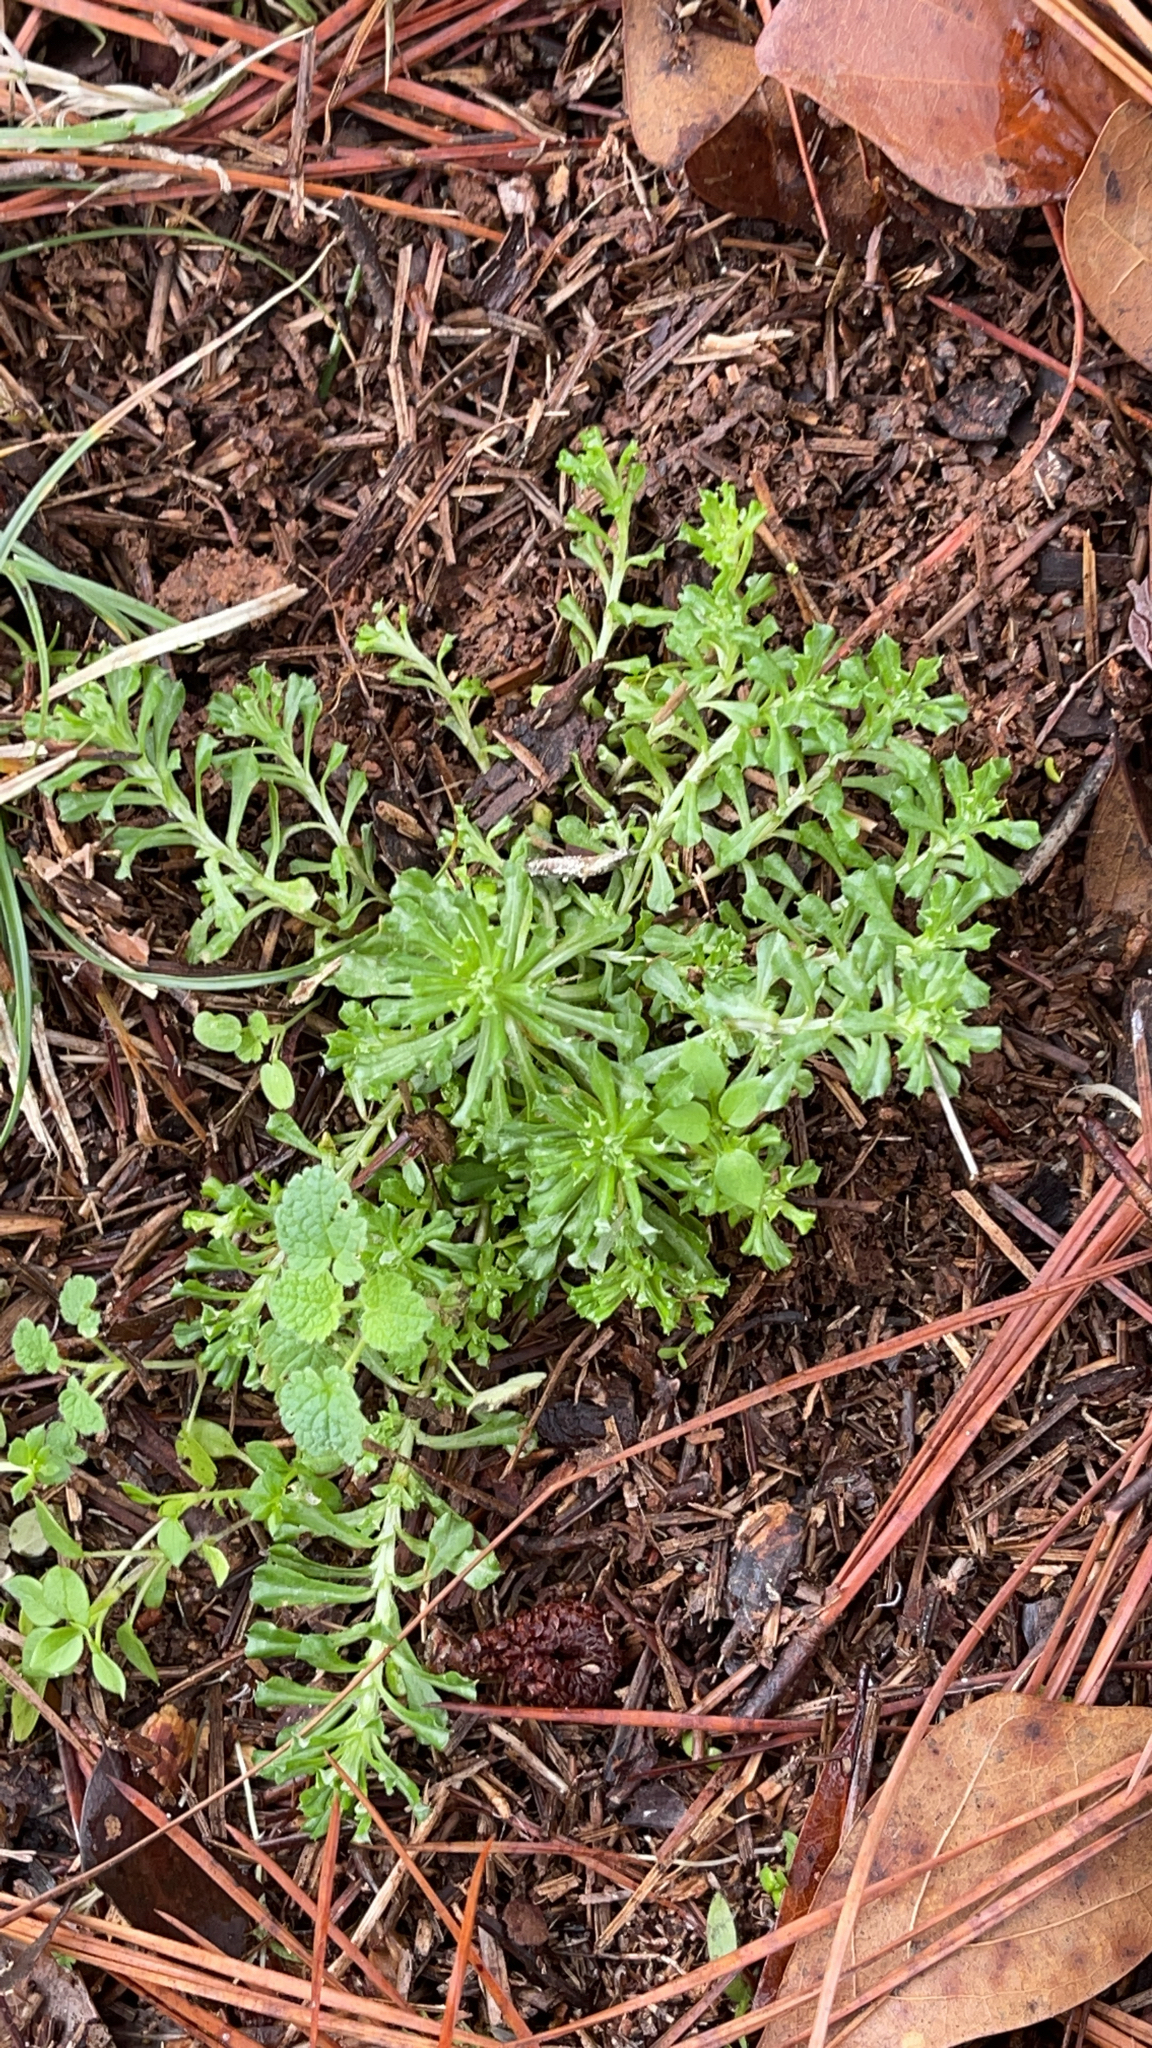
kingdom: Plantae
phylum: Tracheophyta
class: Magnoliopsida
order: Asterales
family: Asteraceae
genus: Facelis
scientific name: Facelis retusa
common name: Annual trampweed
